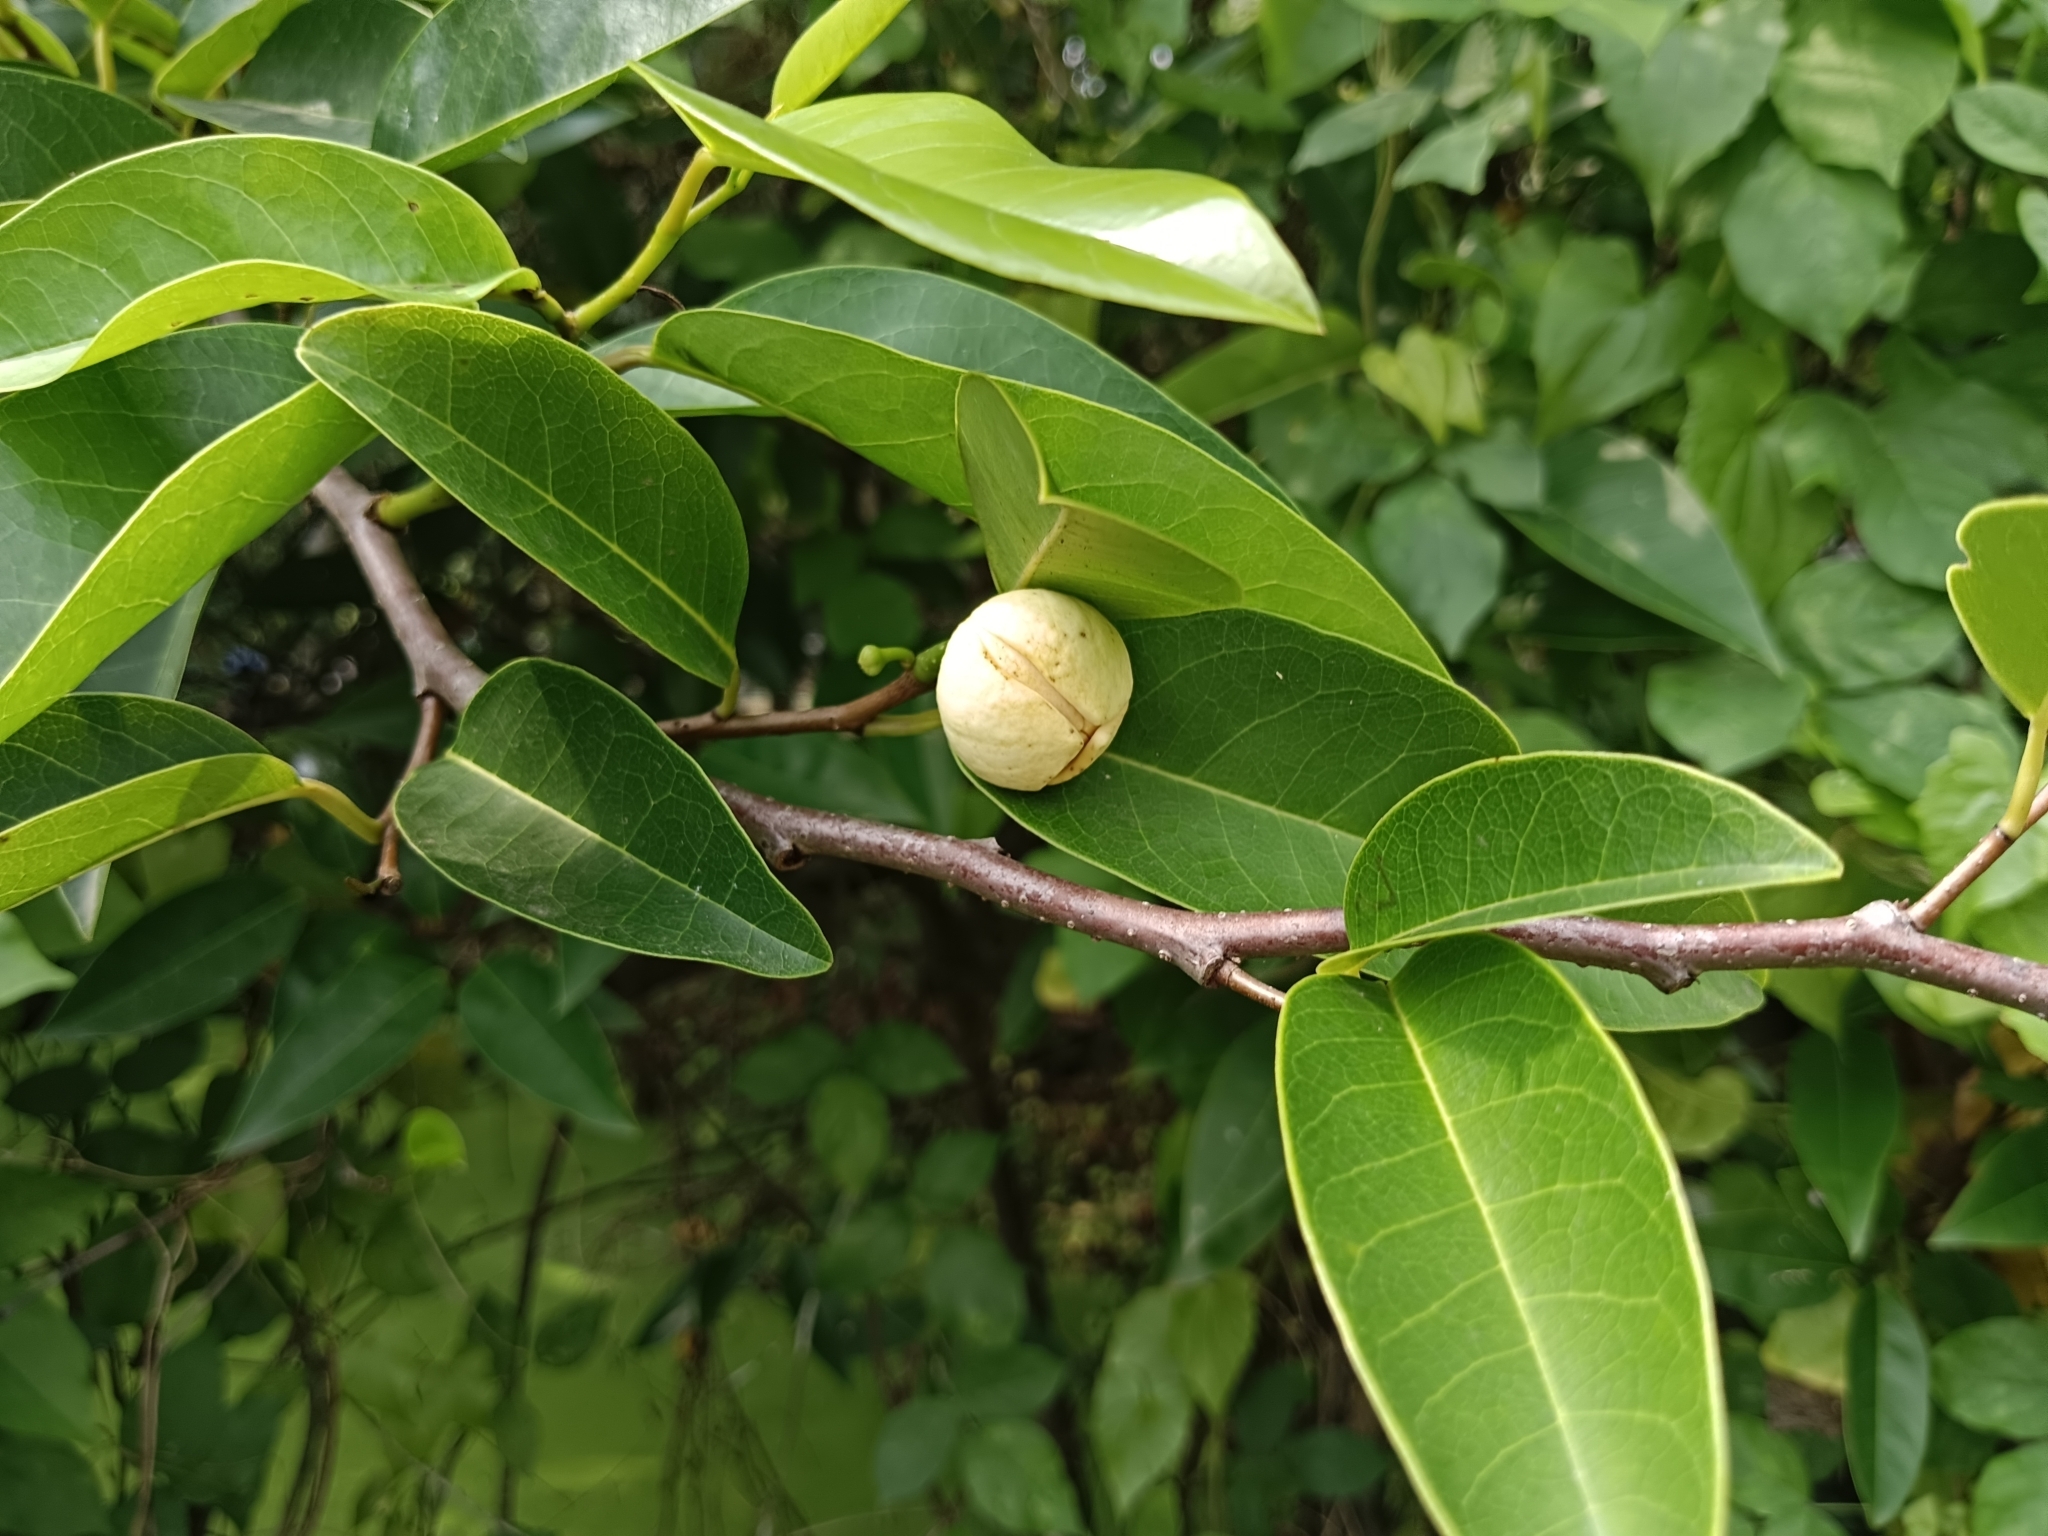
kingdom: Plantae
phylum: Tracheophyta
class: Magnoliopsida
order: Magnoliales
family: Annonaceae
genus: Annona
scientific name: Annona glabra
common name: Monkey apple
